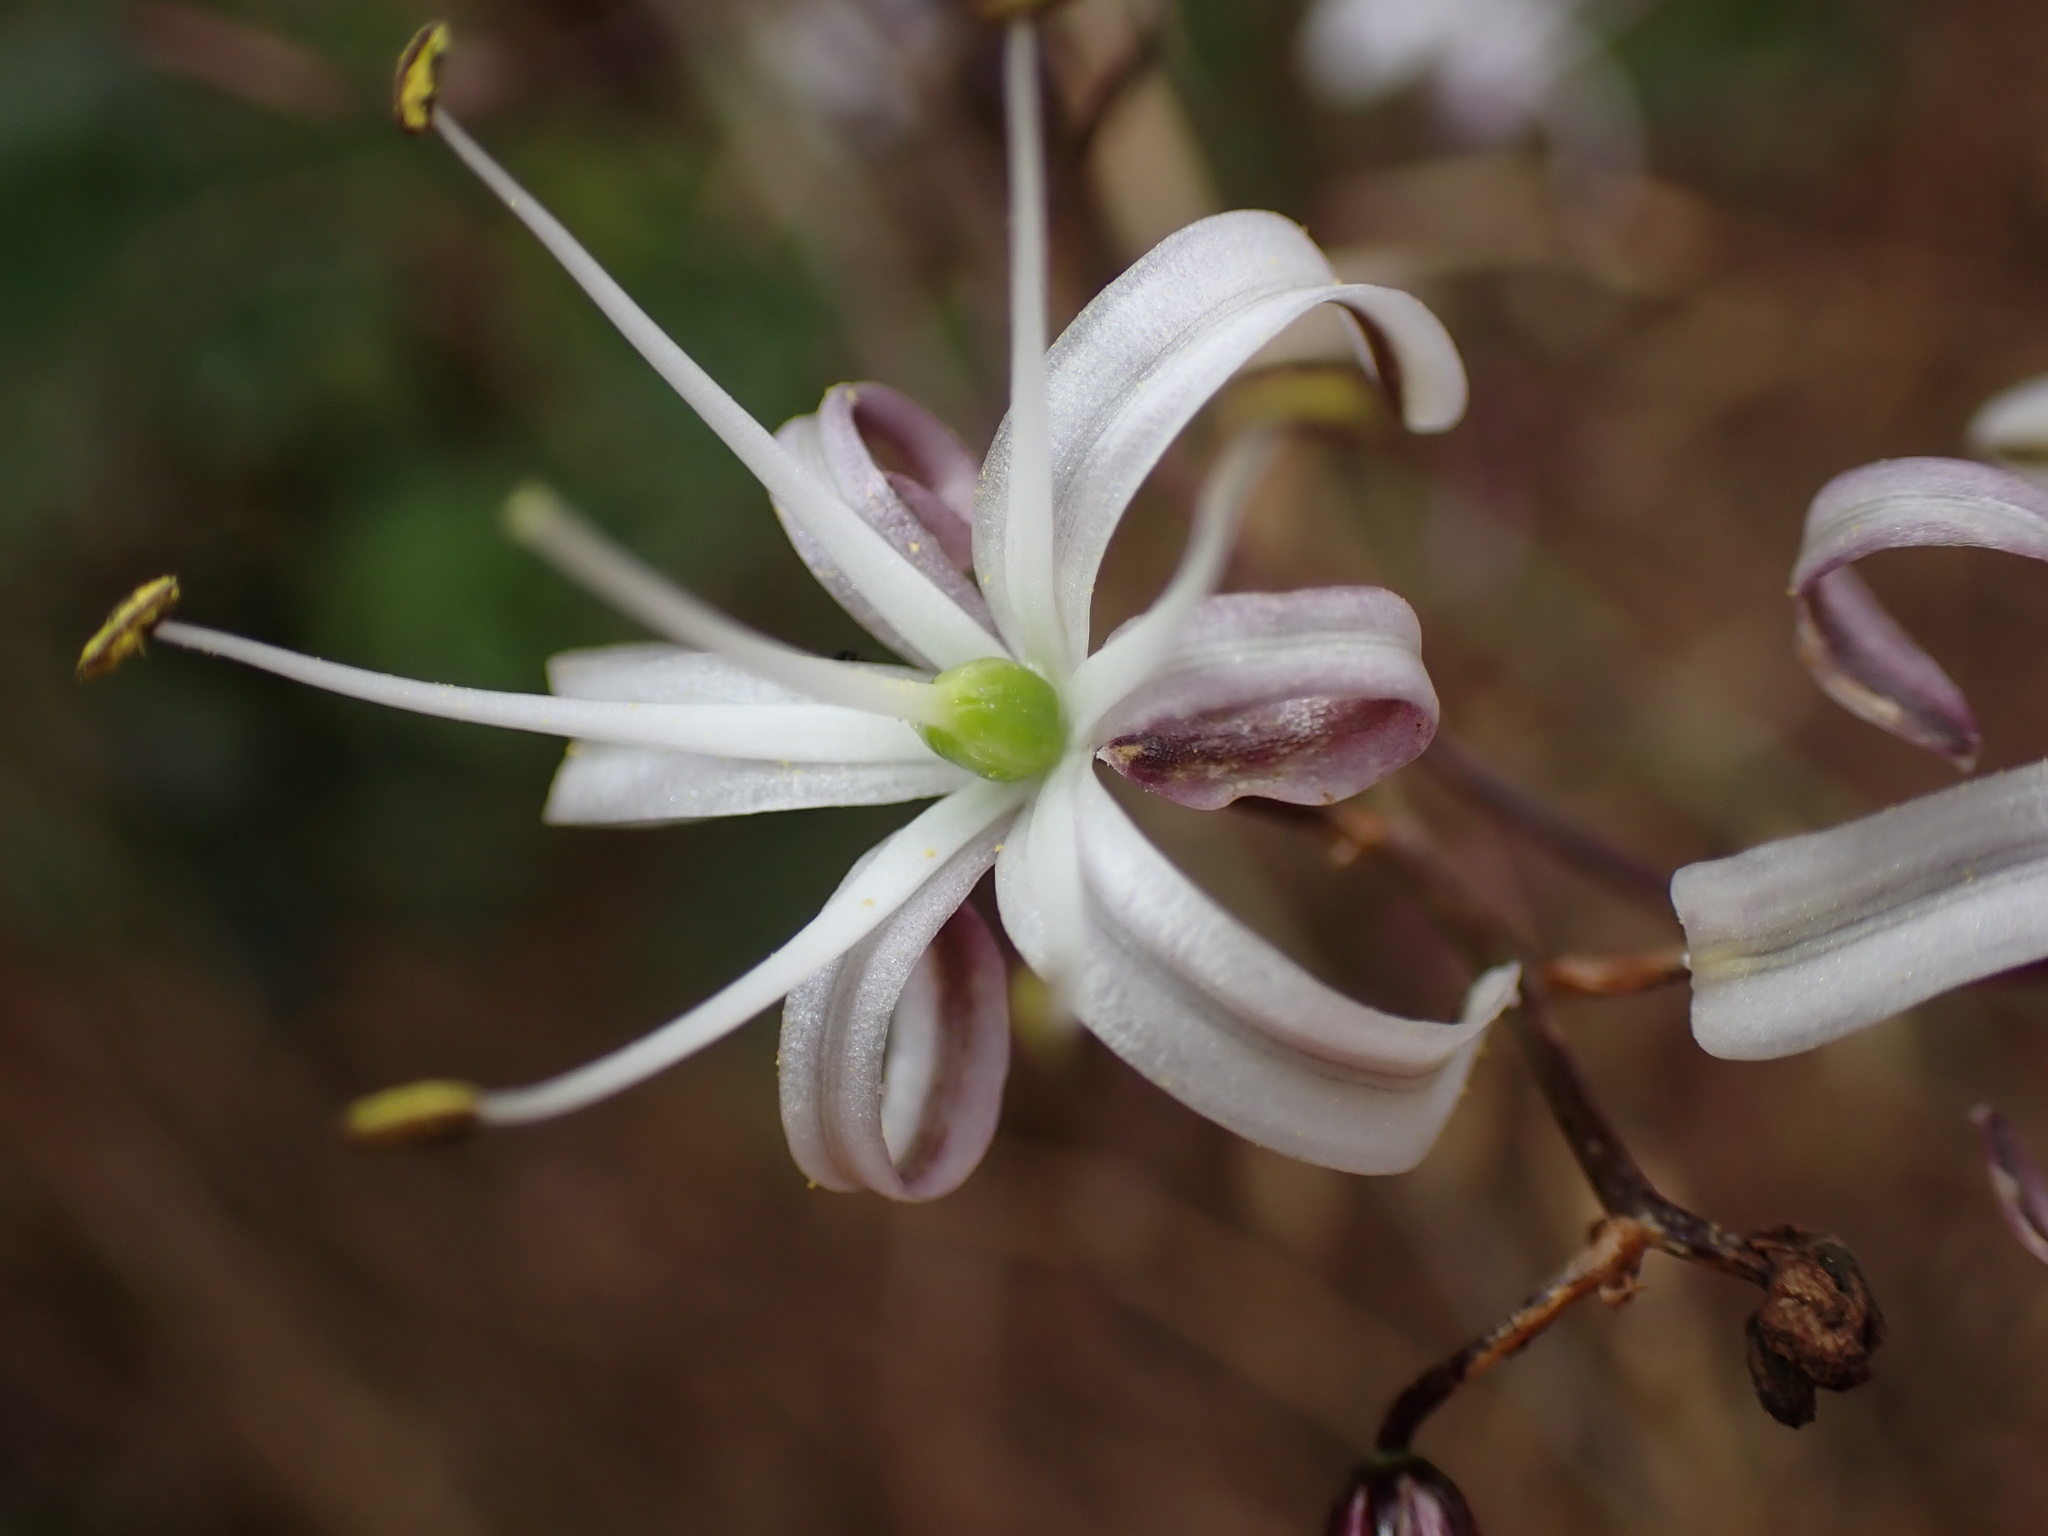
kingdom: Plantae
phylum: Tracheophyta
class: Liliopsida
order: Asparagales
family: Asparagaceae
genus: Chlorogalum
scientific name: Chlorogalum pomeridianum
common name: Amole
